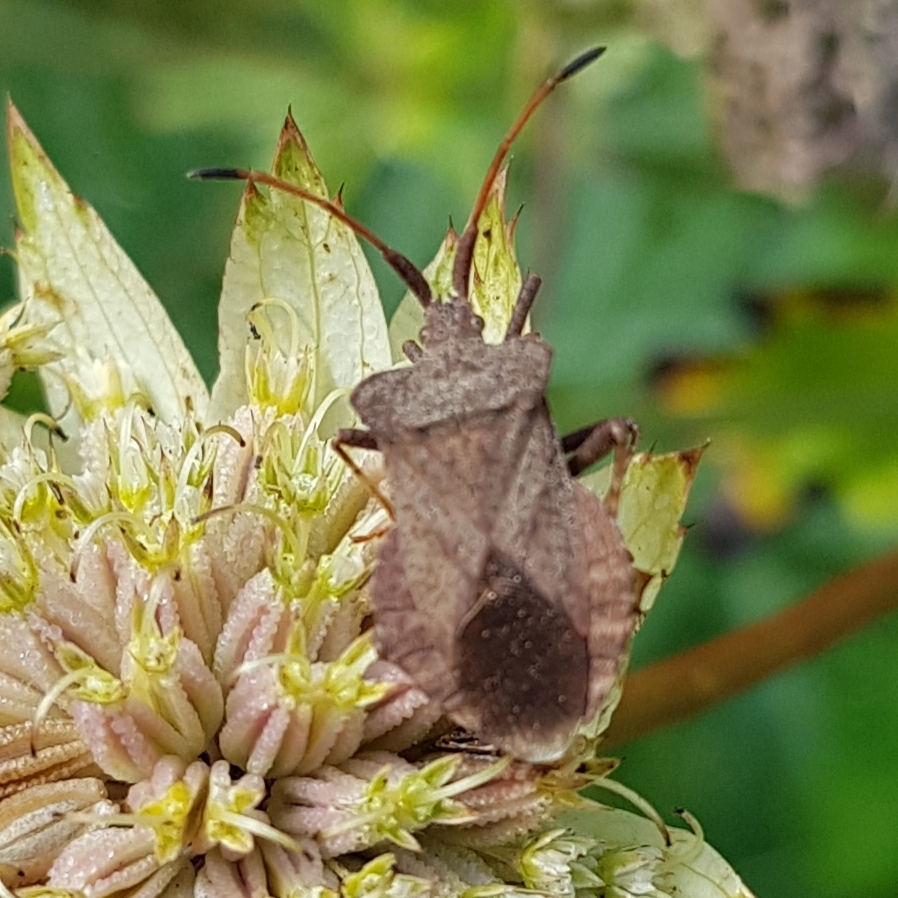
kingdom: Animalia
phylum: Arthropoda
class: Insecta
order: Hemiptera
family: Coreidae
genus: Coreus
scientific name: Coreus marginatus
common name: Dock bug
